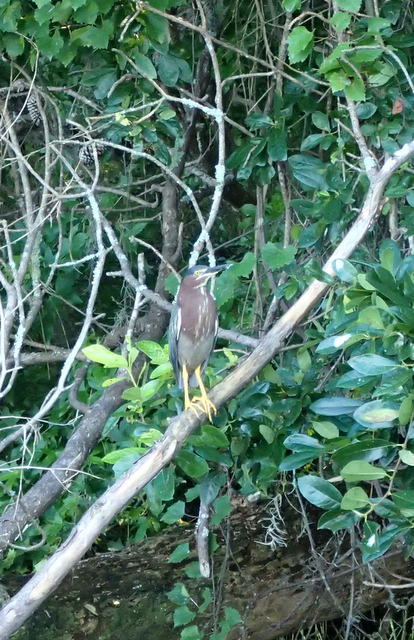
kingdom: Animalia
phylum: Chordata
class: Aves
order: Pelecaniformes
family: Ardeidae
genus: Butorides
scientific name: Butorides virescens
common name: Green heron
